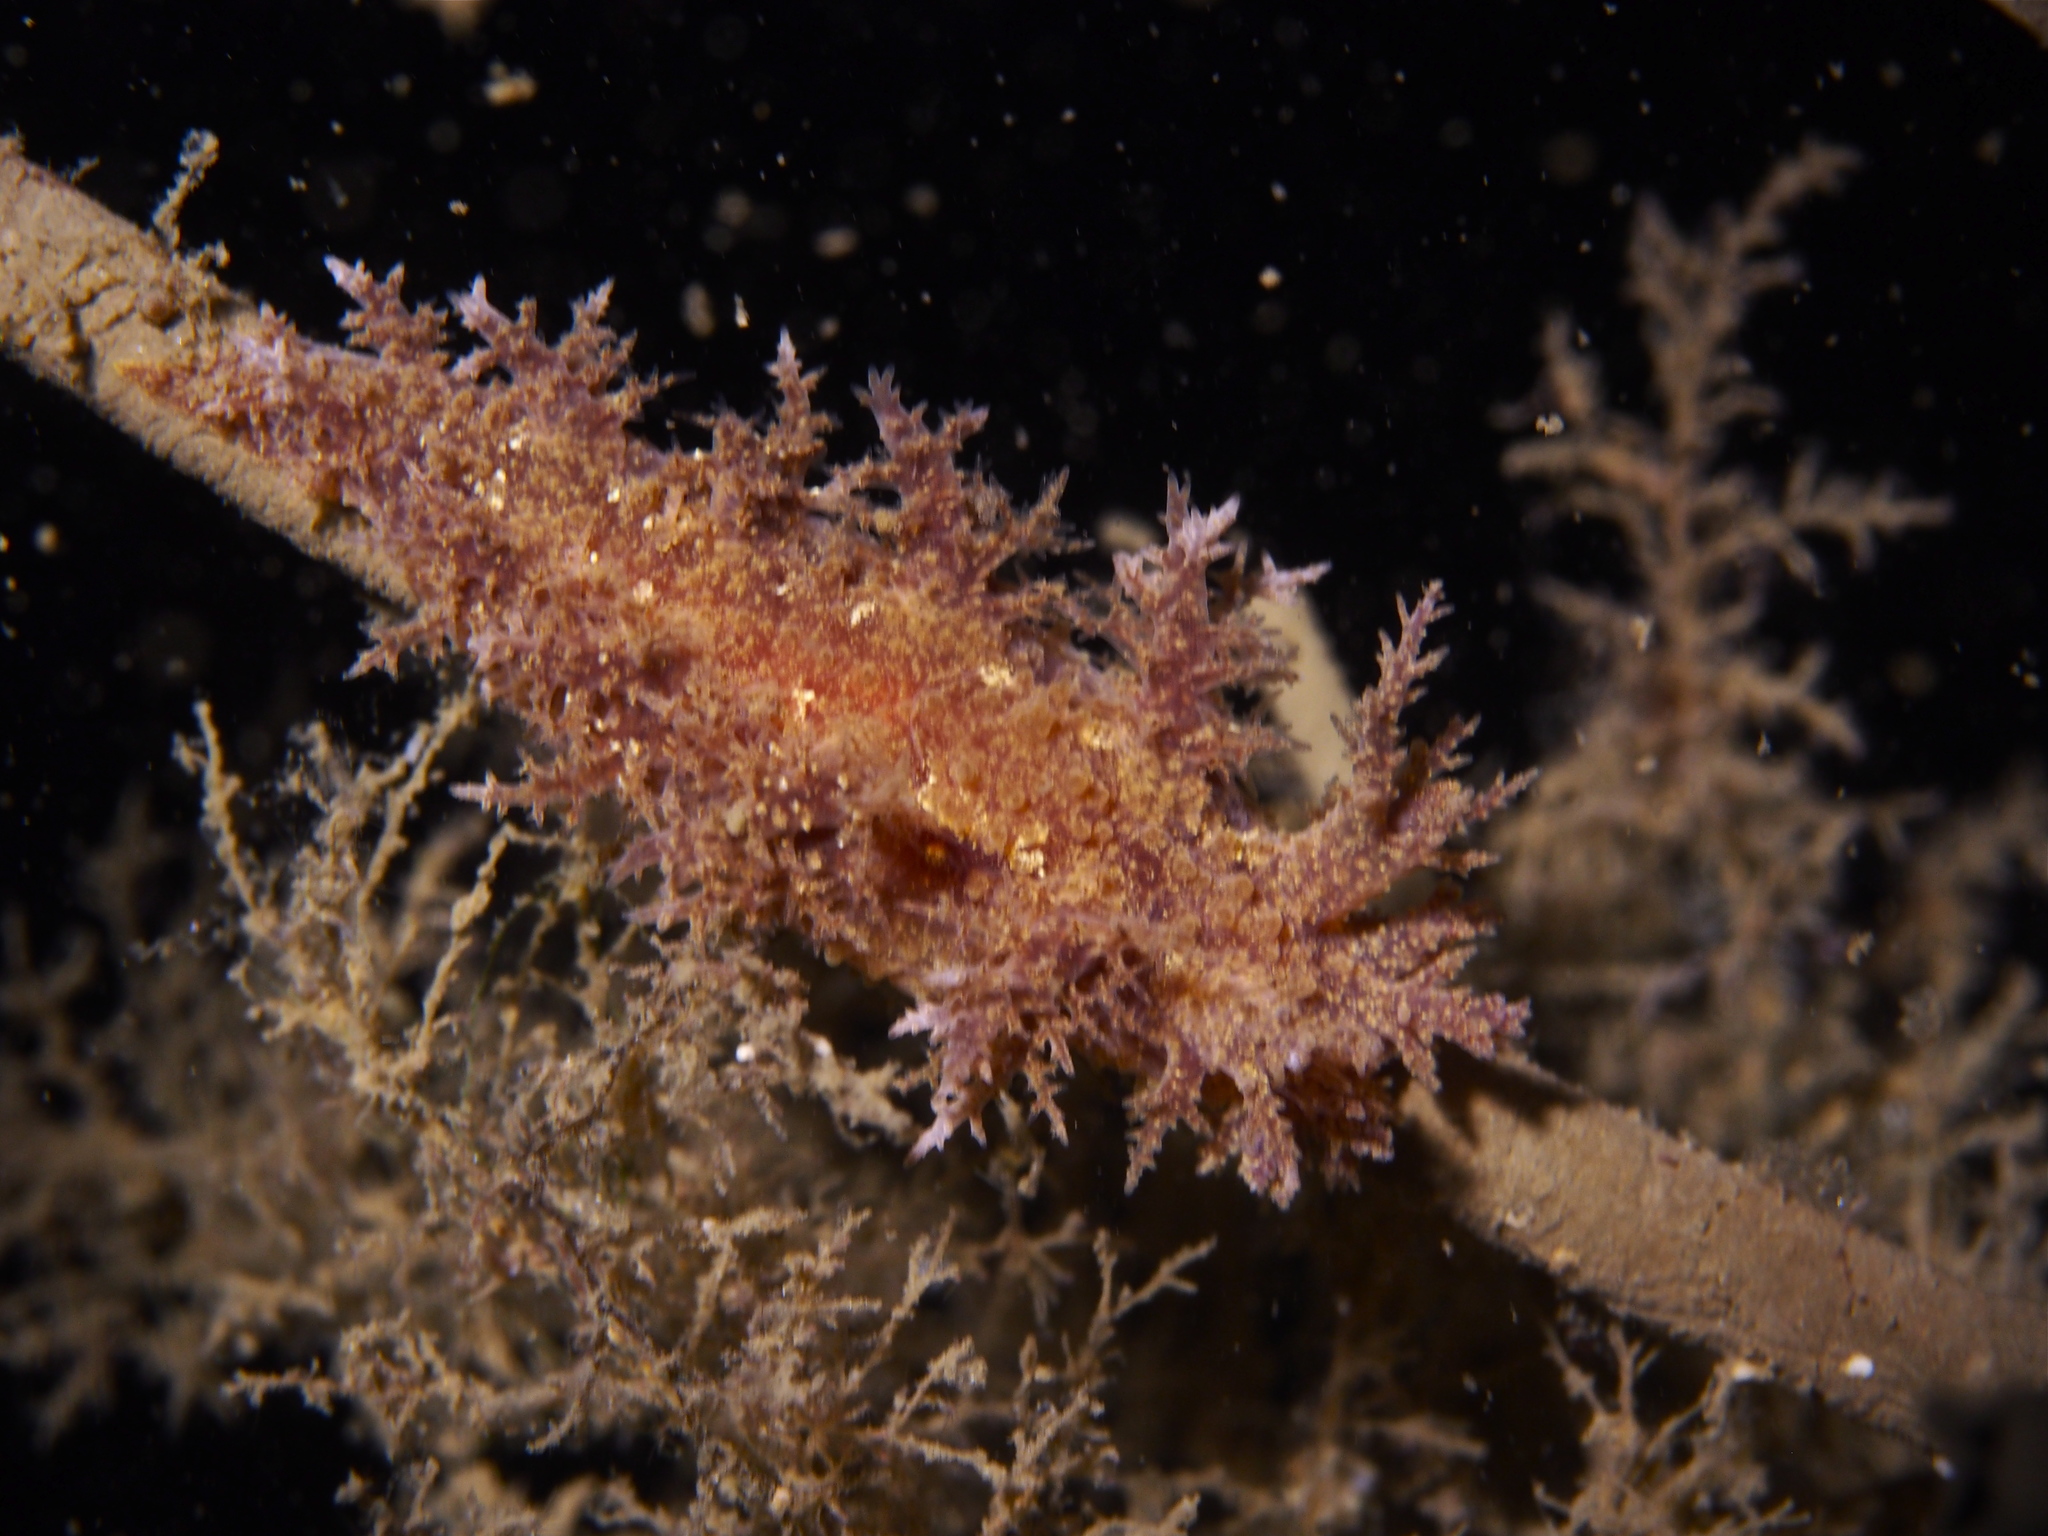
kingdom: Animalia
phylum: Mollusca
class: Gastropoda
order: Nudibranchia
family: Dendronotidae
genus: Dendronotus
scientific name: Dendronotus europaeus
